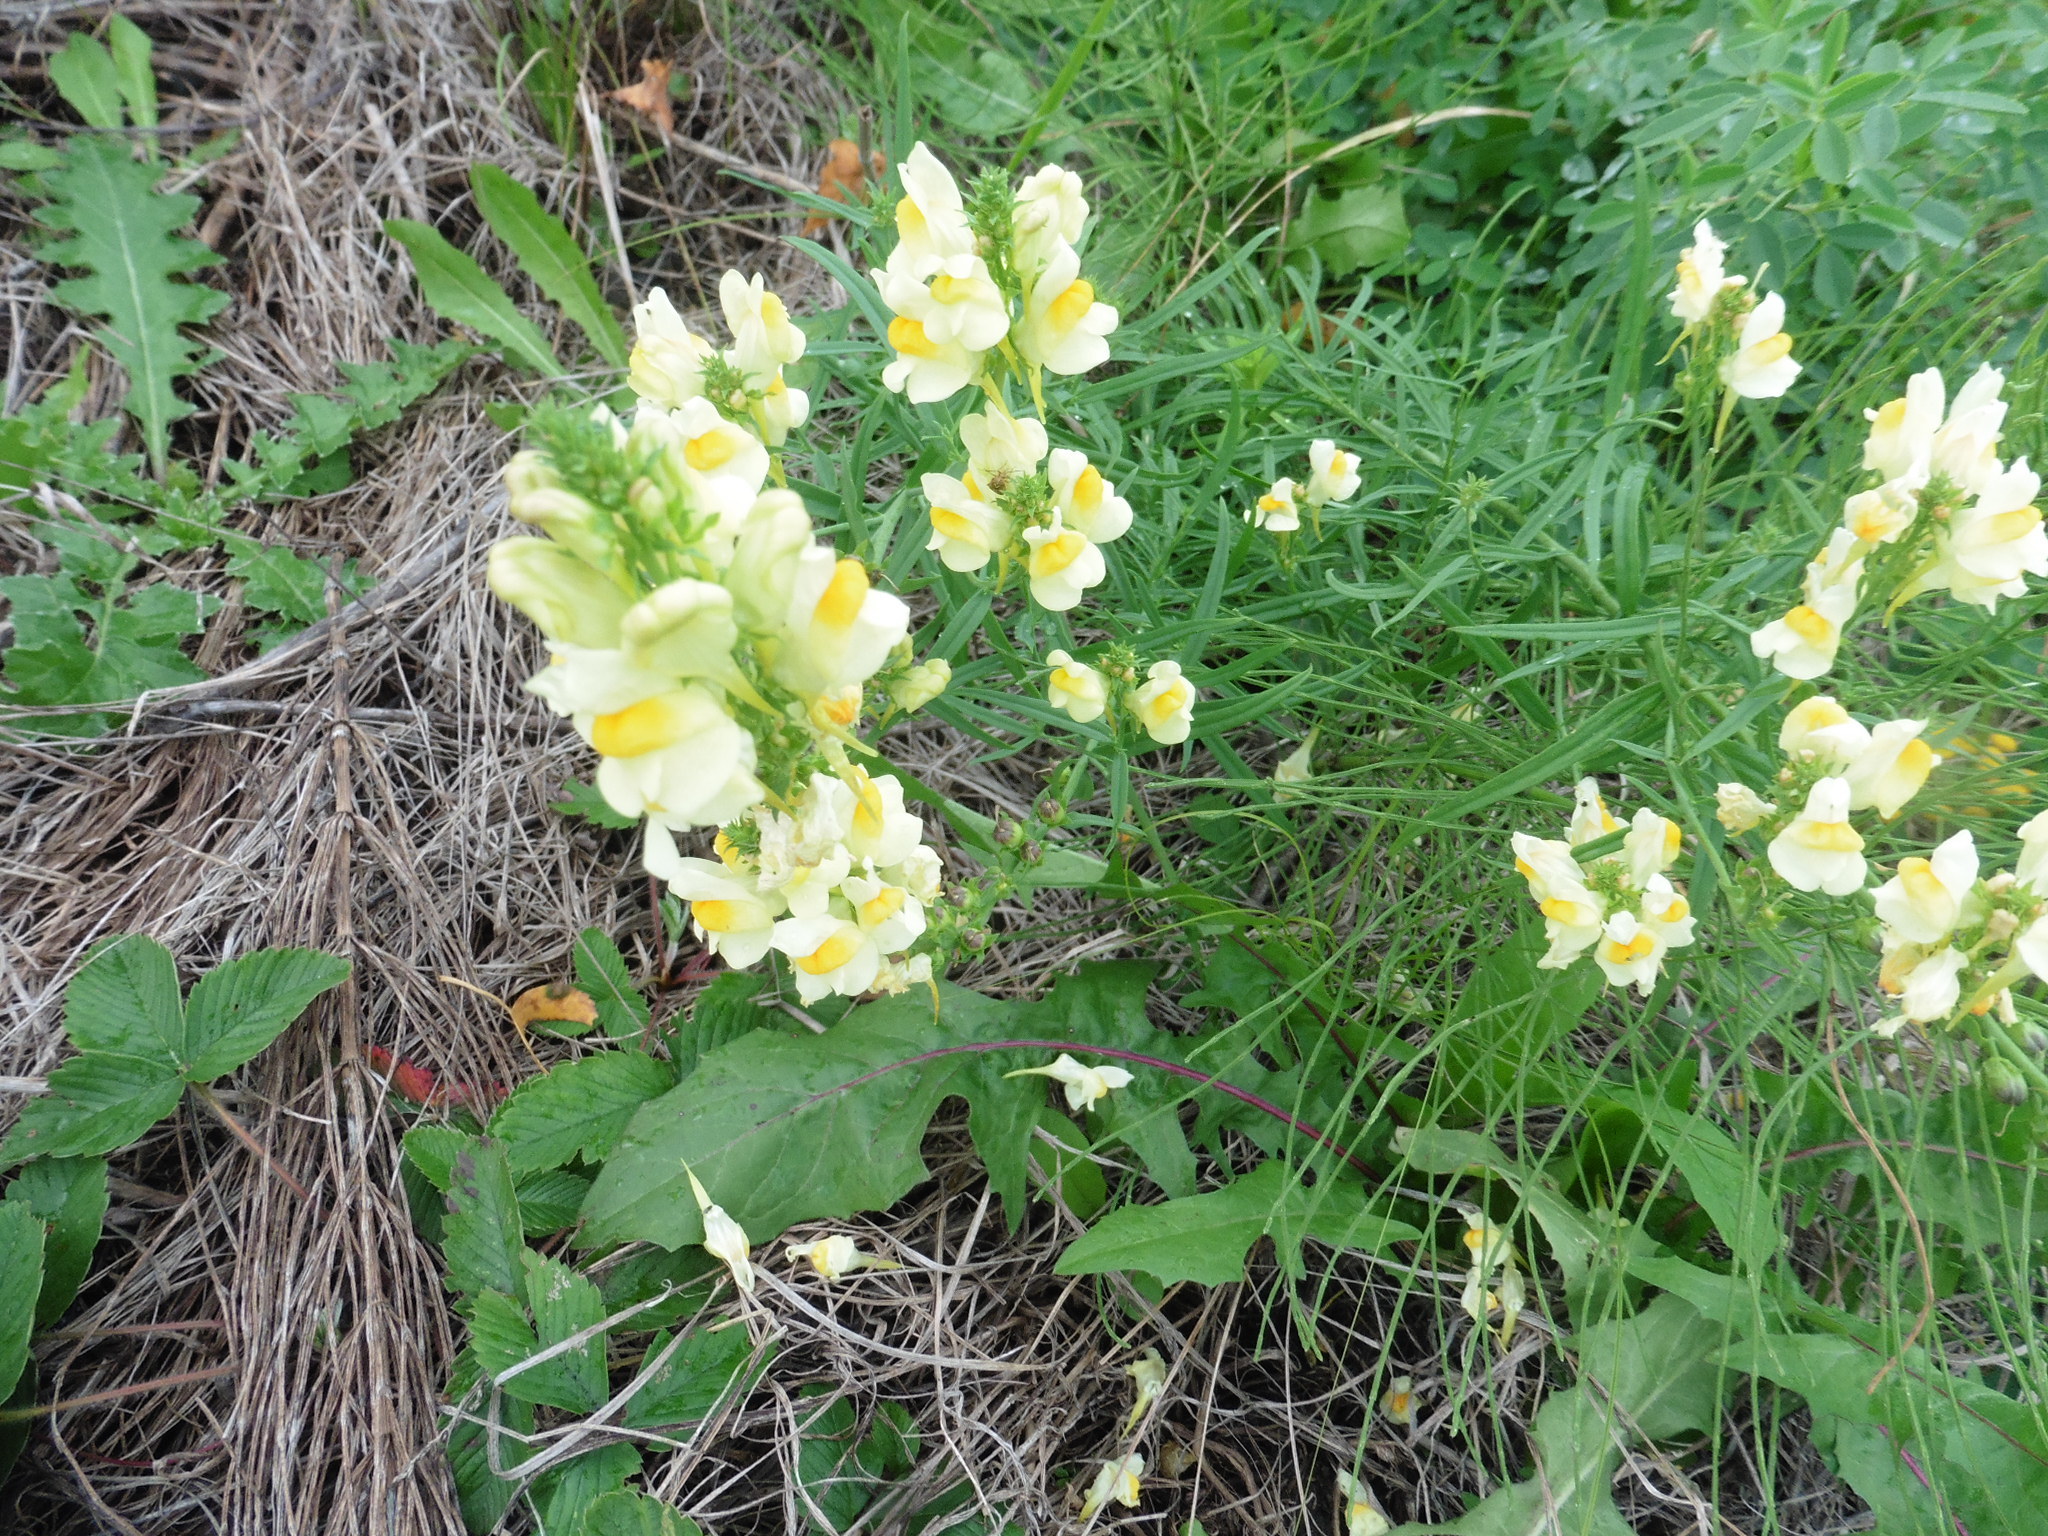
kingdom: Plantae
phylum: Tracheophyta
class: Magnoliopsida
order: Lamiales
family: Plantaginaceae
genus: Linaria
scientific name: Linaria vulgaris
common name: Butter and eggs
